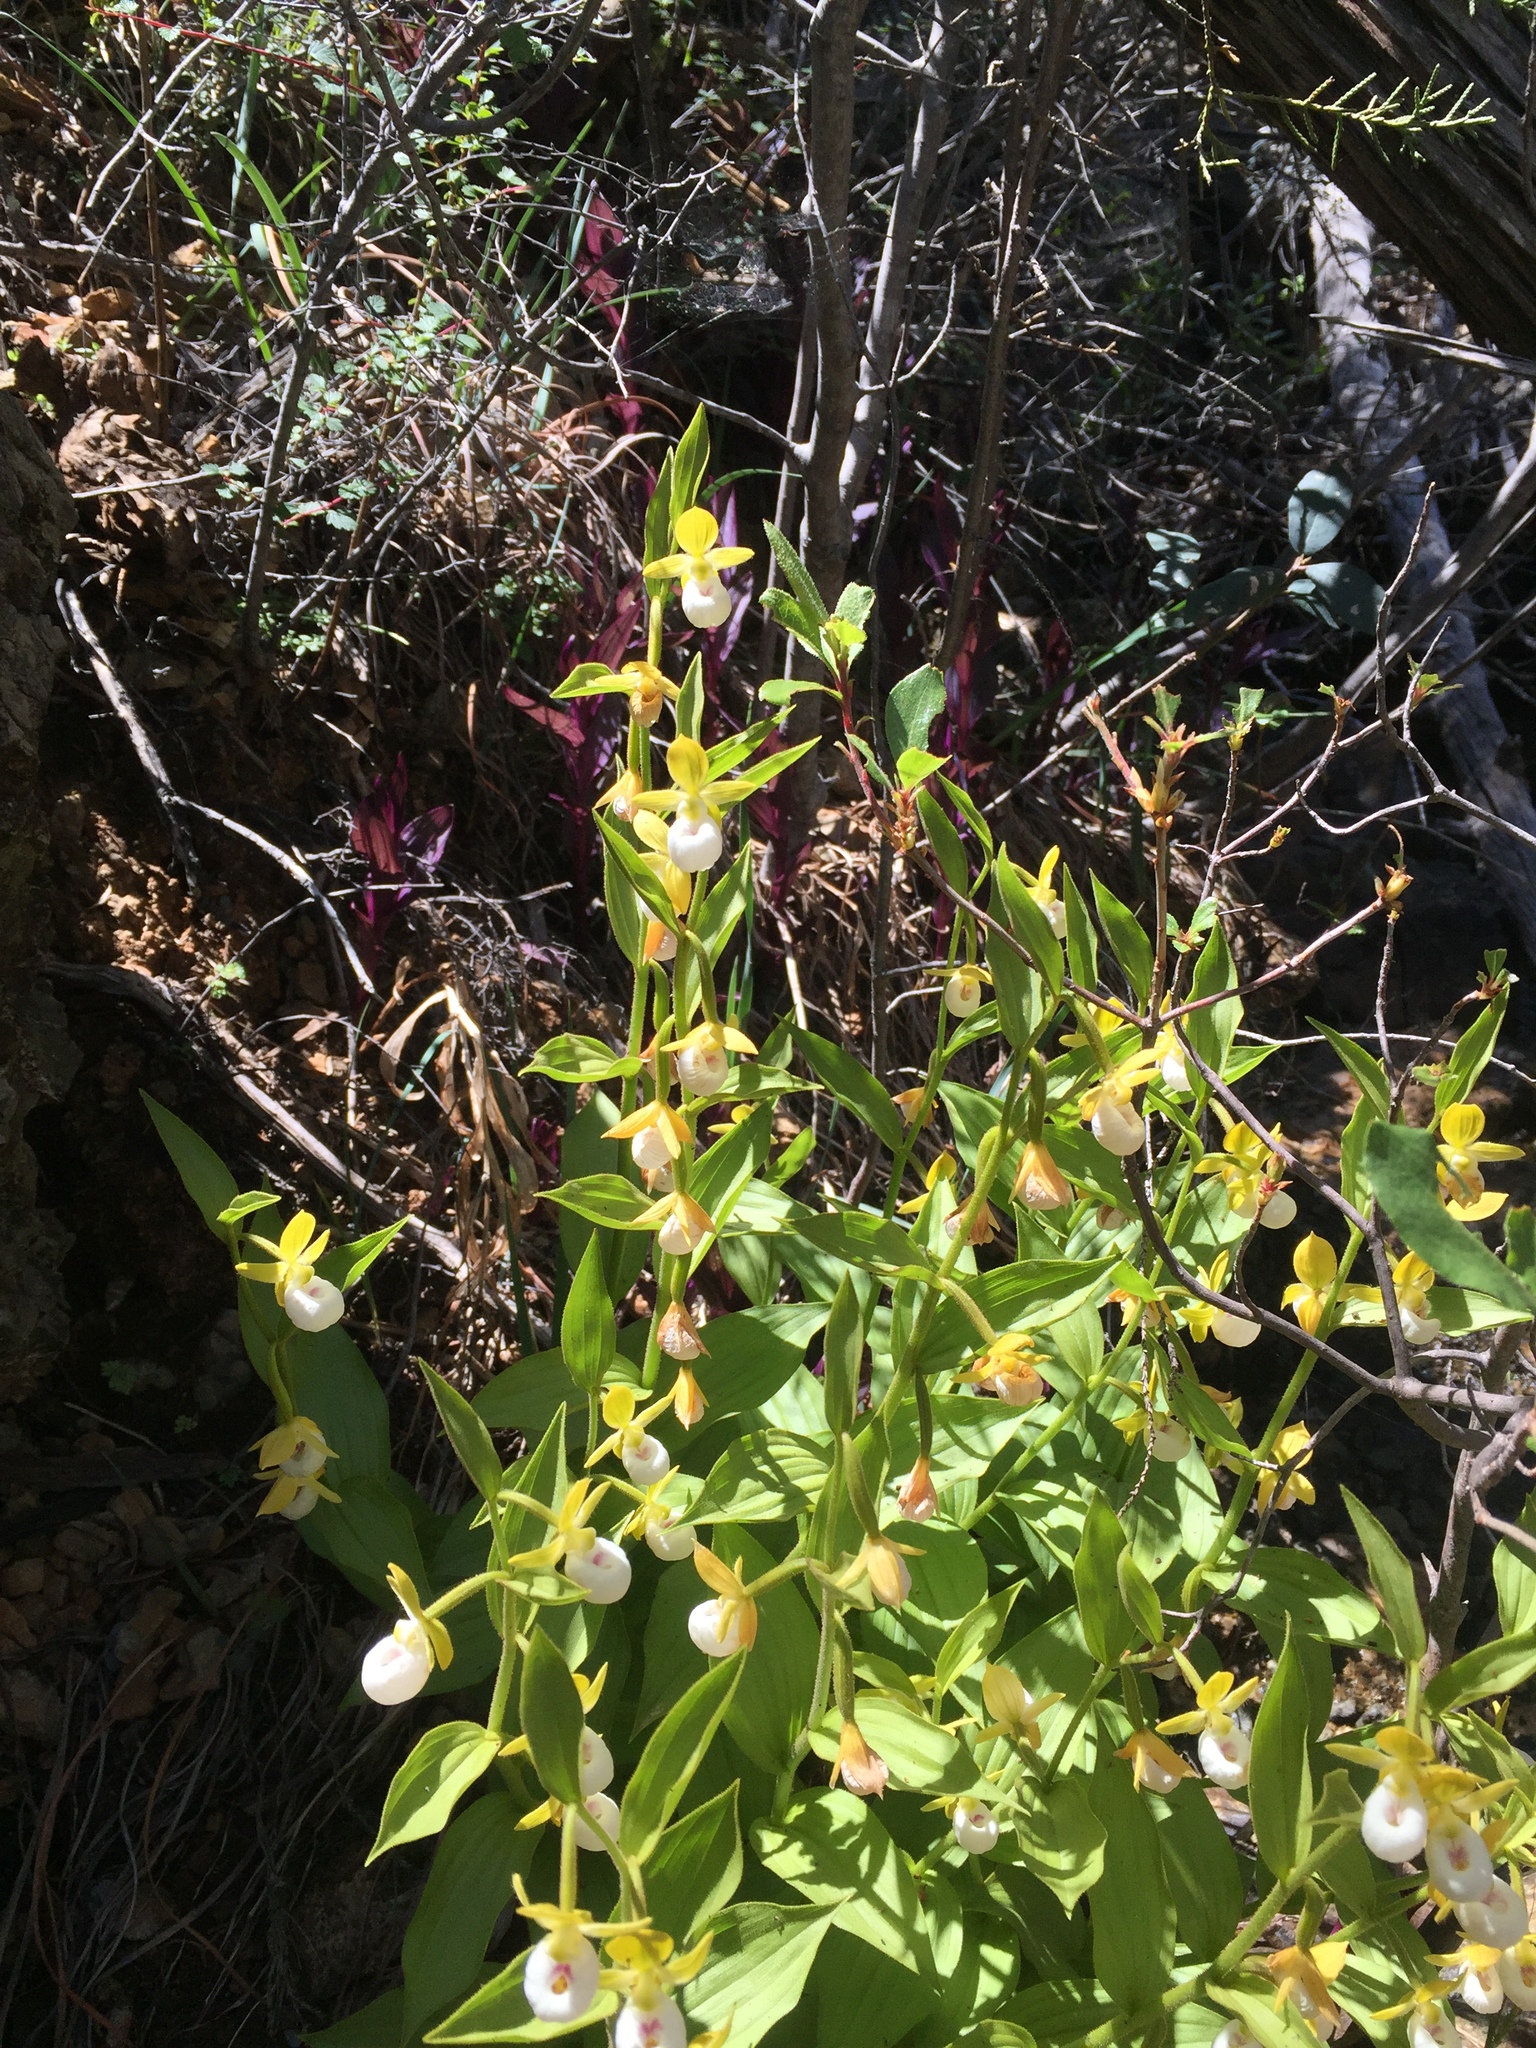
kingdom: Plantae
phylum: Tracheophyta
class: Liliopsida
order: Asparagales
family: Orchidaceae
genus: Cypripedium
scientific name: Cypripedium californicum
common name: California lady's slipper
